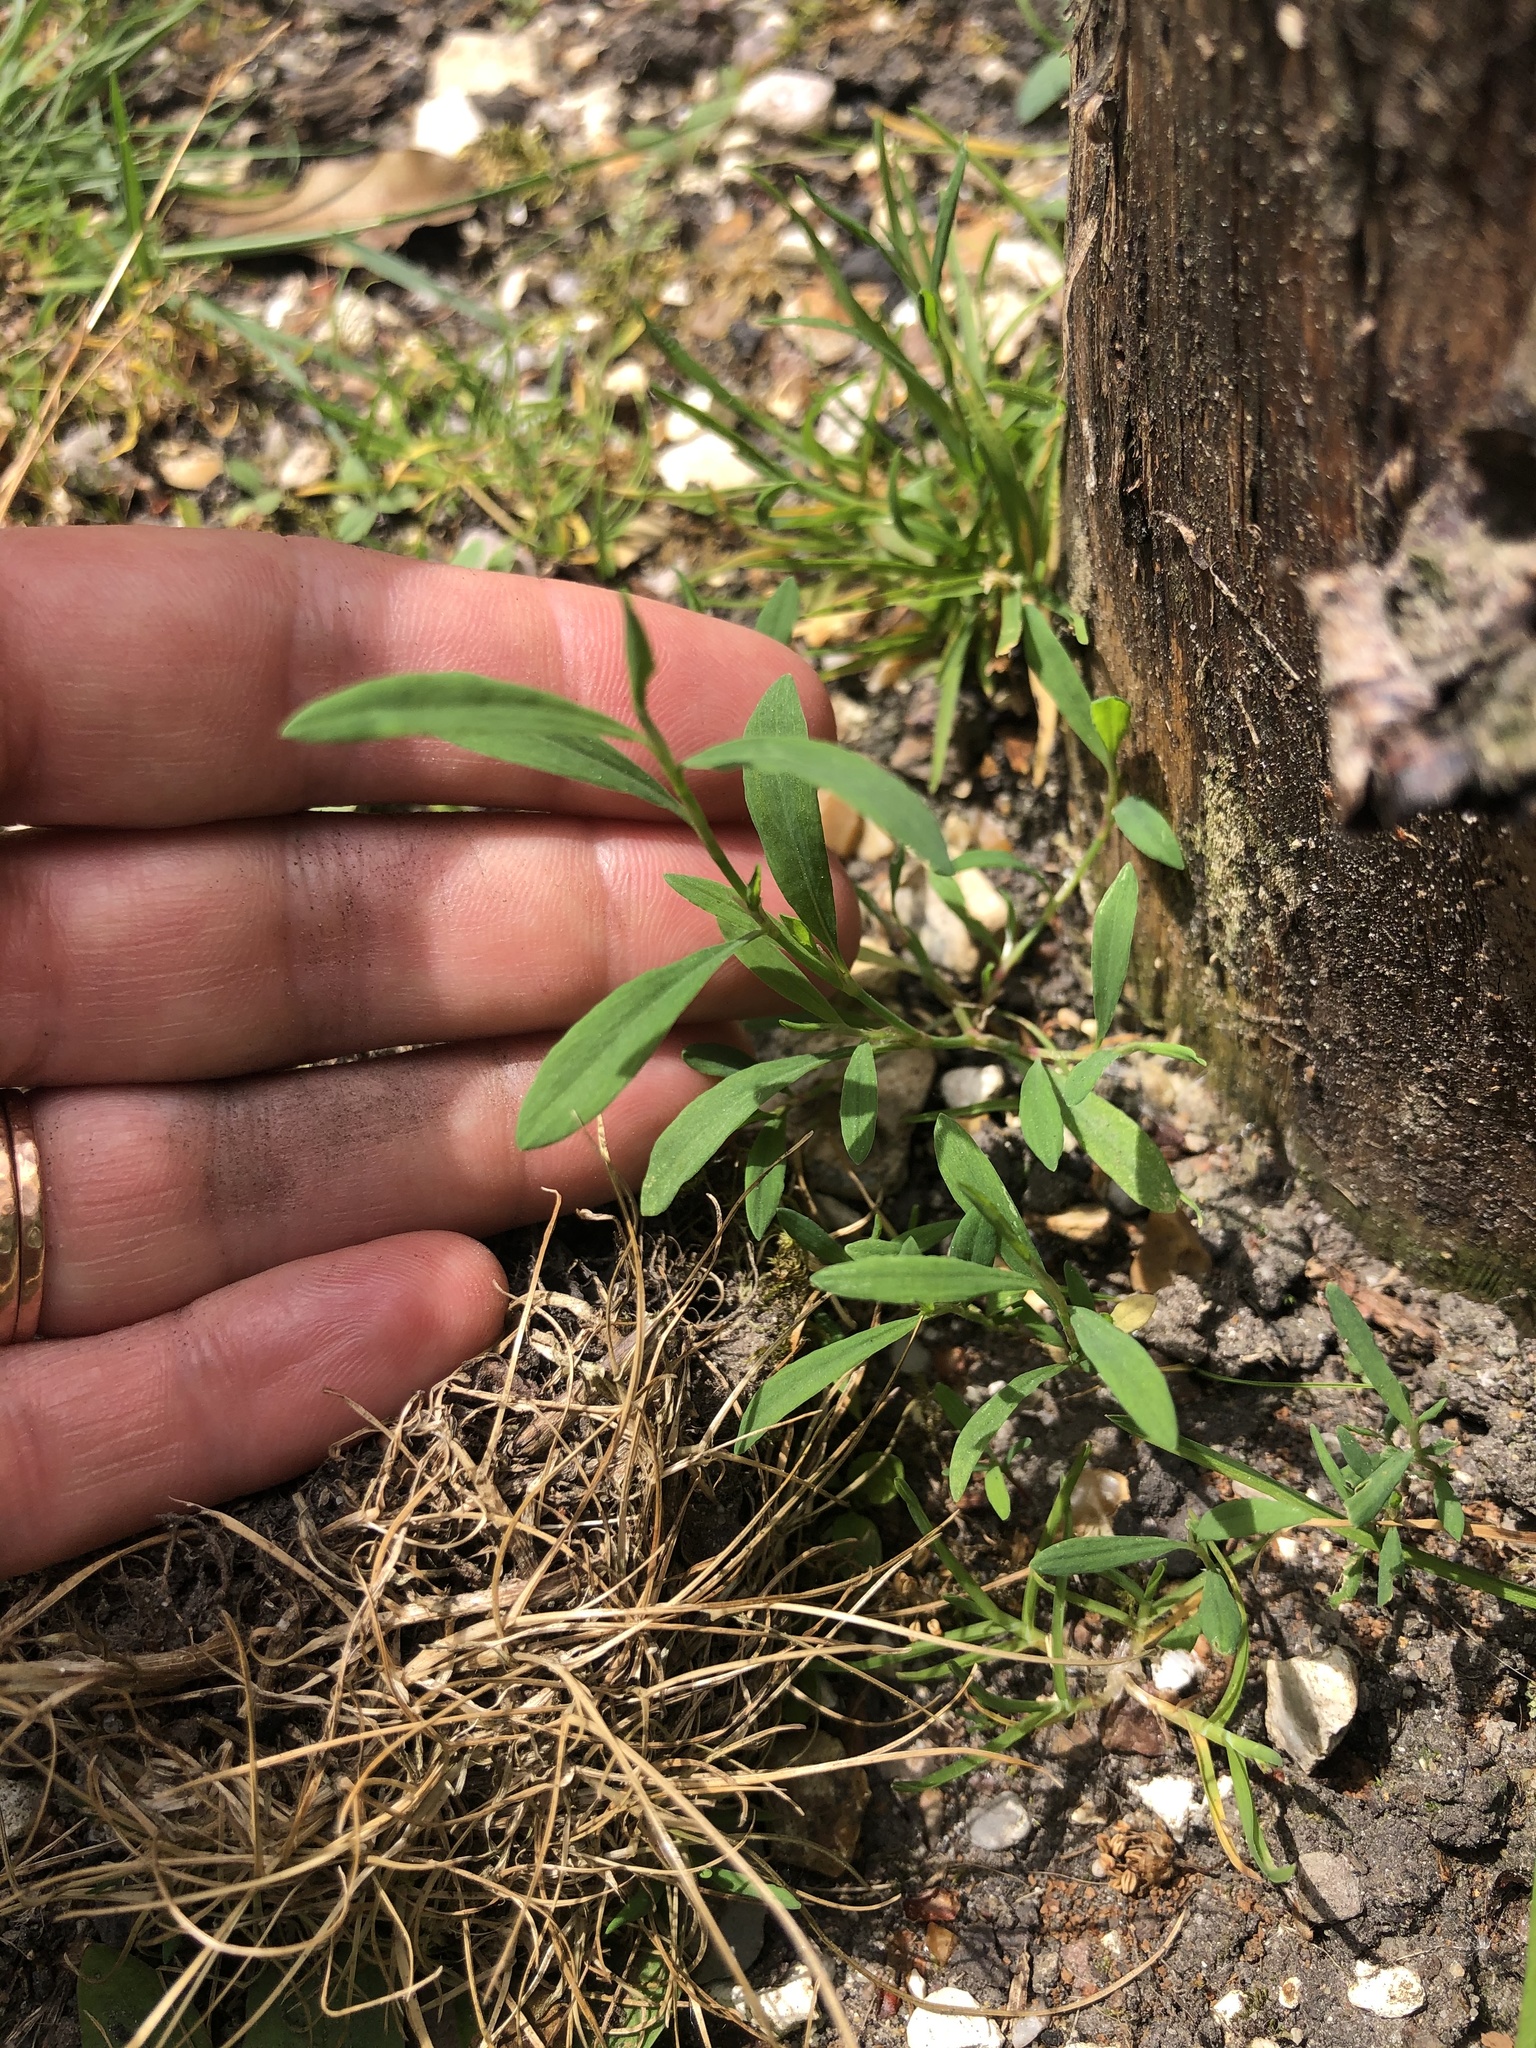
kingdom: Plantae
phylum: Tracheophyta
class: Magnoliopsida
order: Caryophyllales
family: Polygonaceae
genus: Polygonum
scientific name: Polygonum aviculare
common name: Prostrate knotweed
